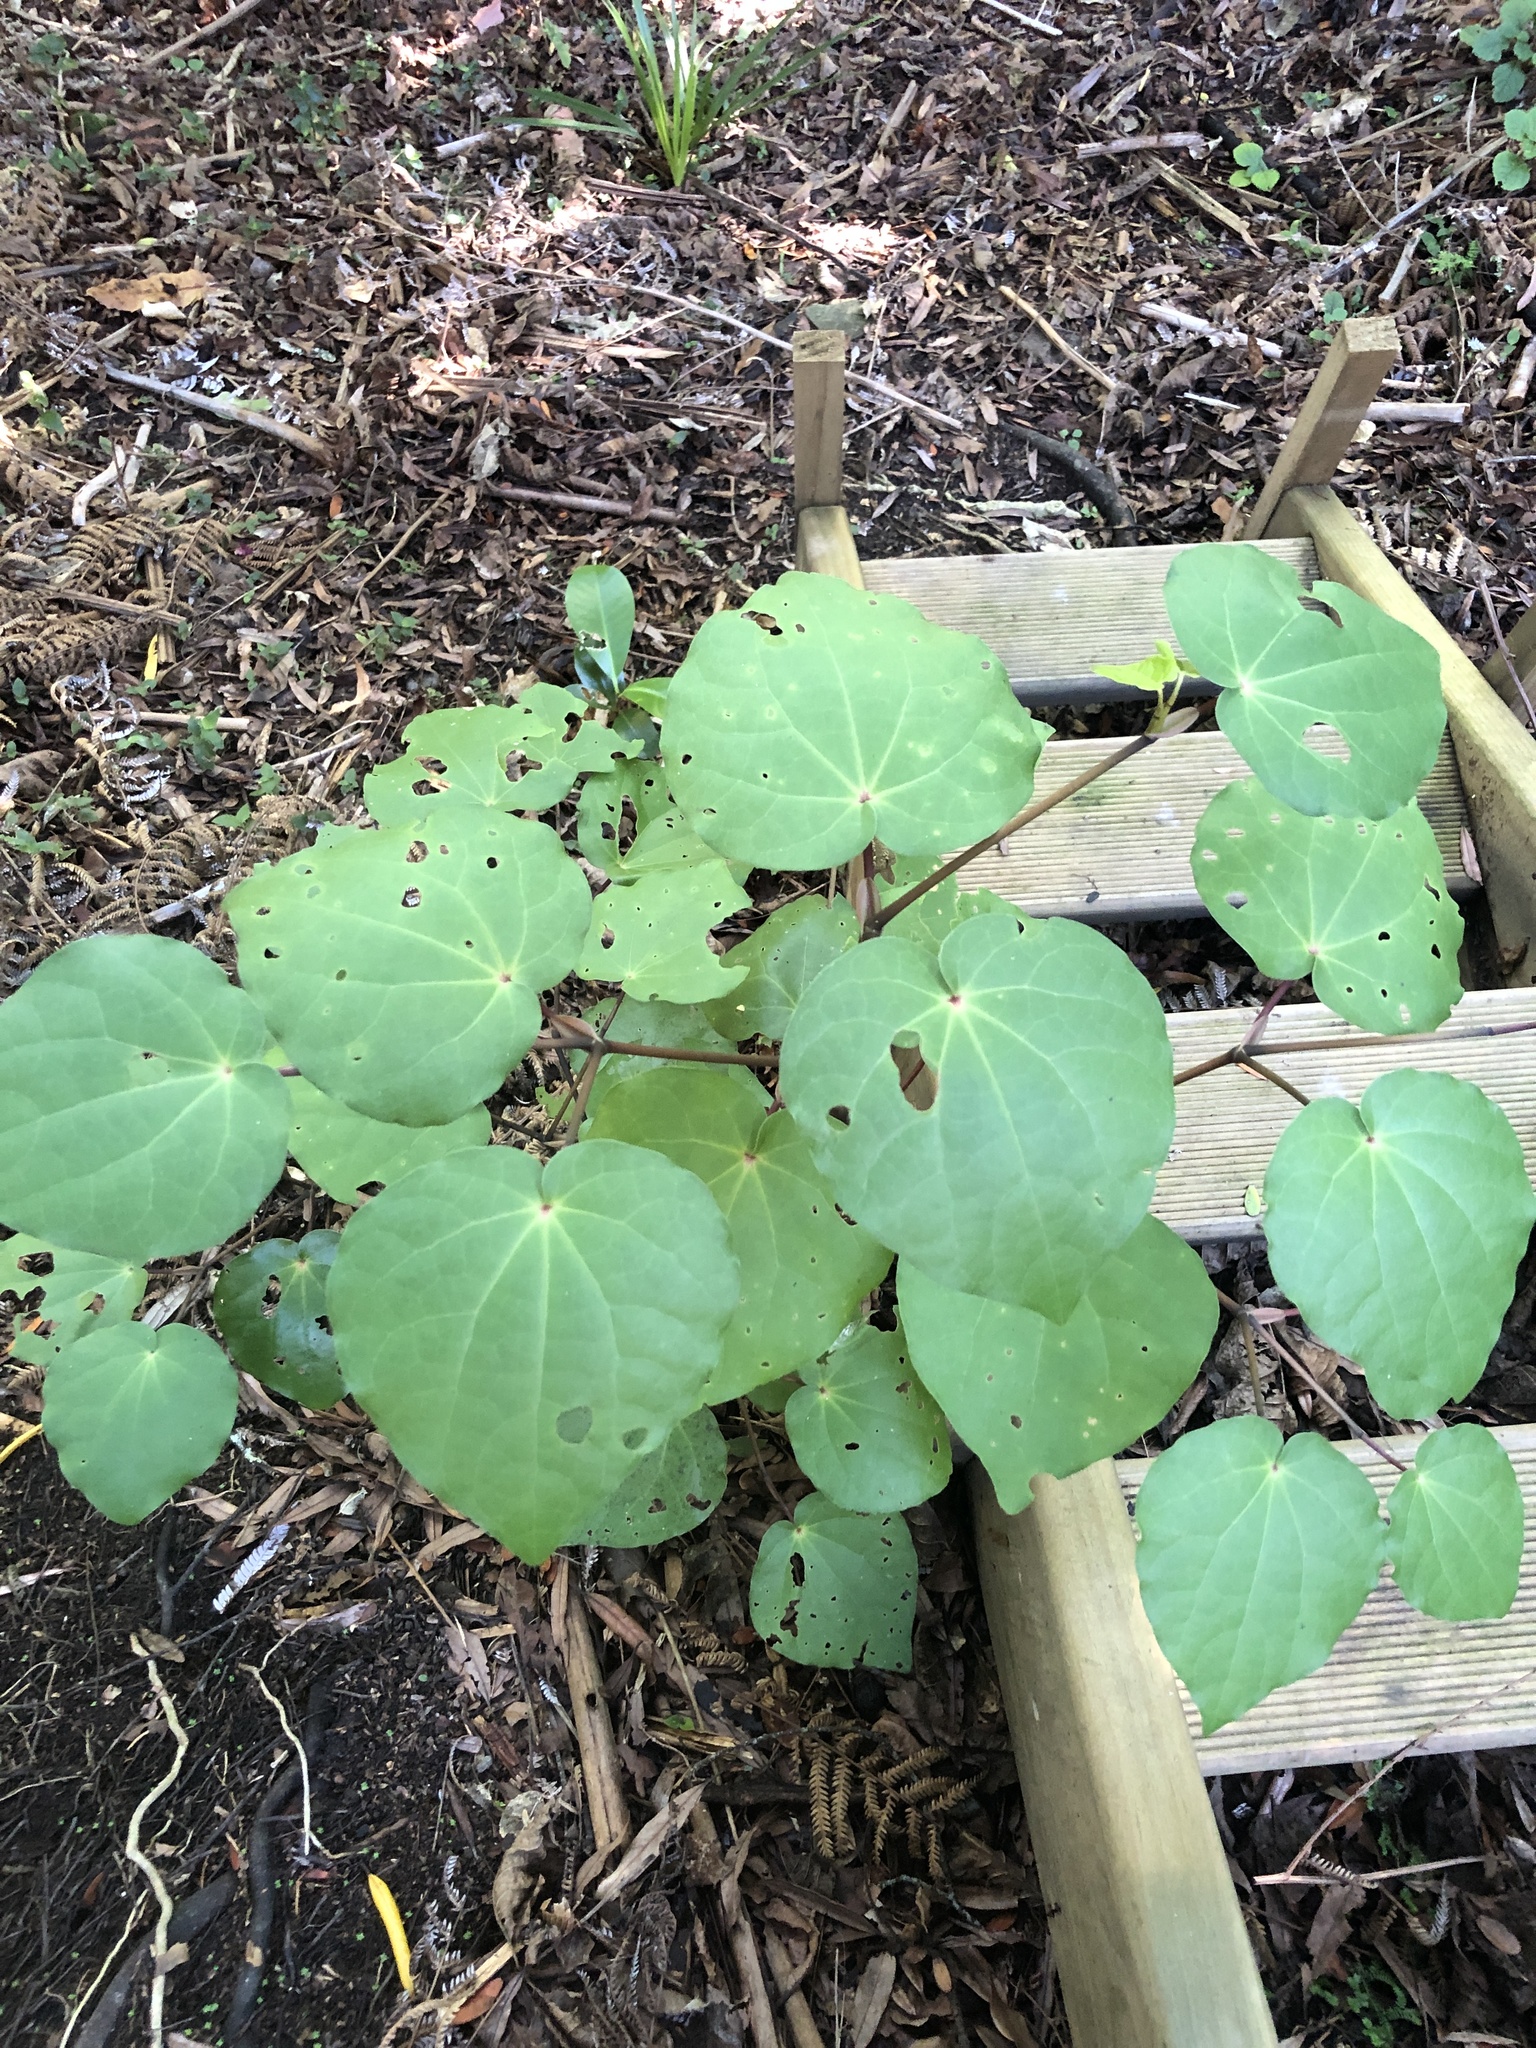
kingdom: Plantae
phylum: Tracheophyta
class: Magnoliopsida
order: Piperales
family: Piperaceae
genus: Macropiper
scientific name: Macropiper excelsum
